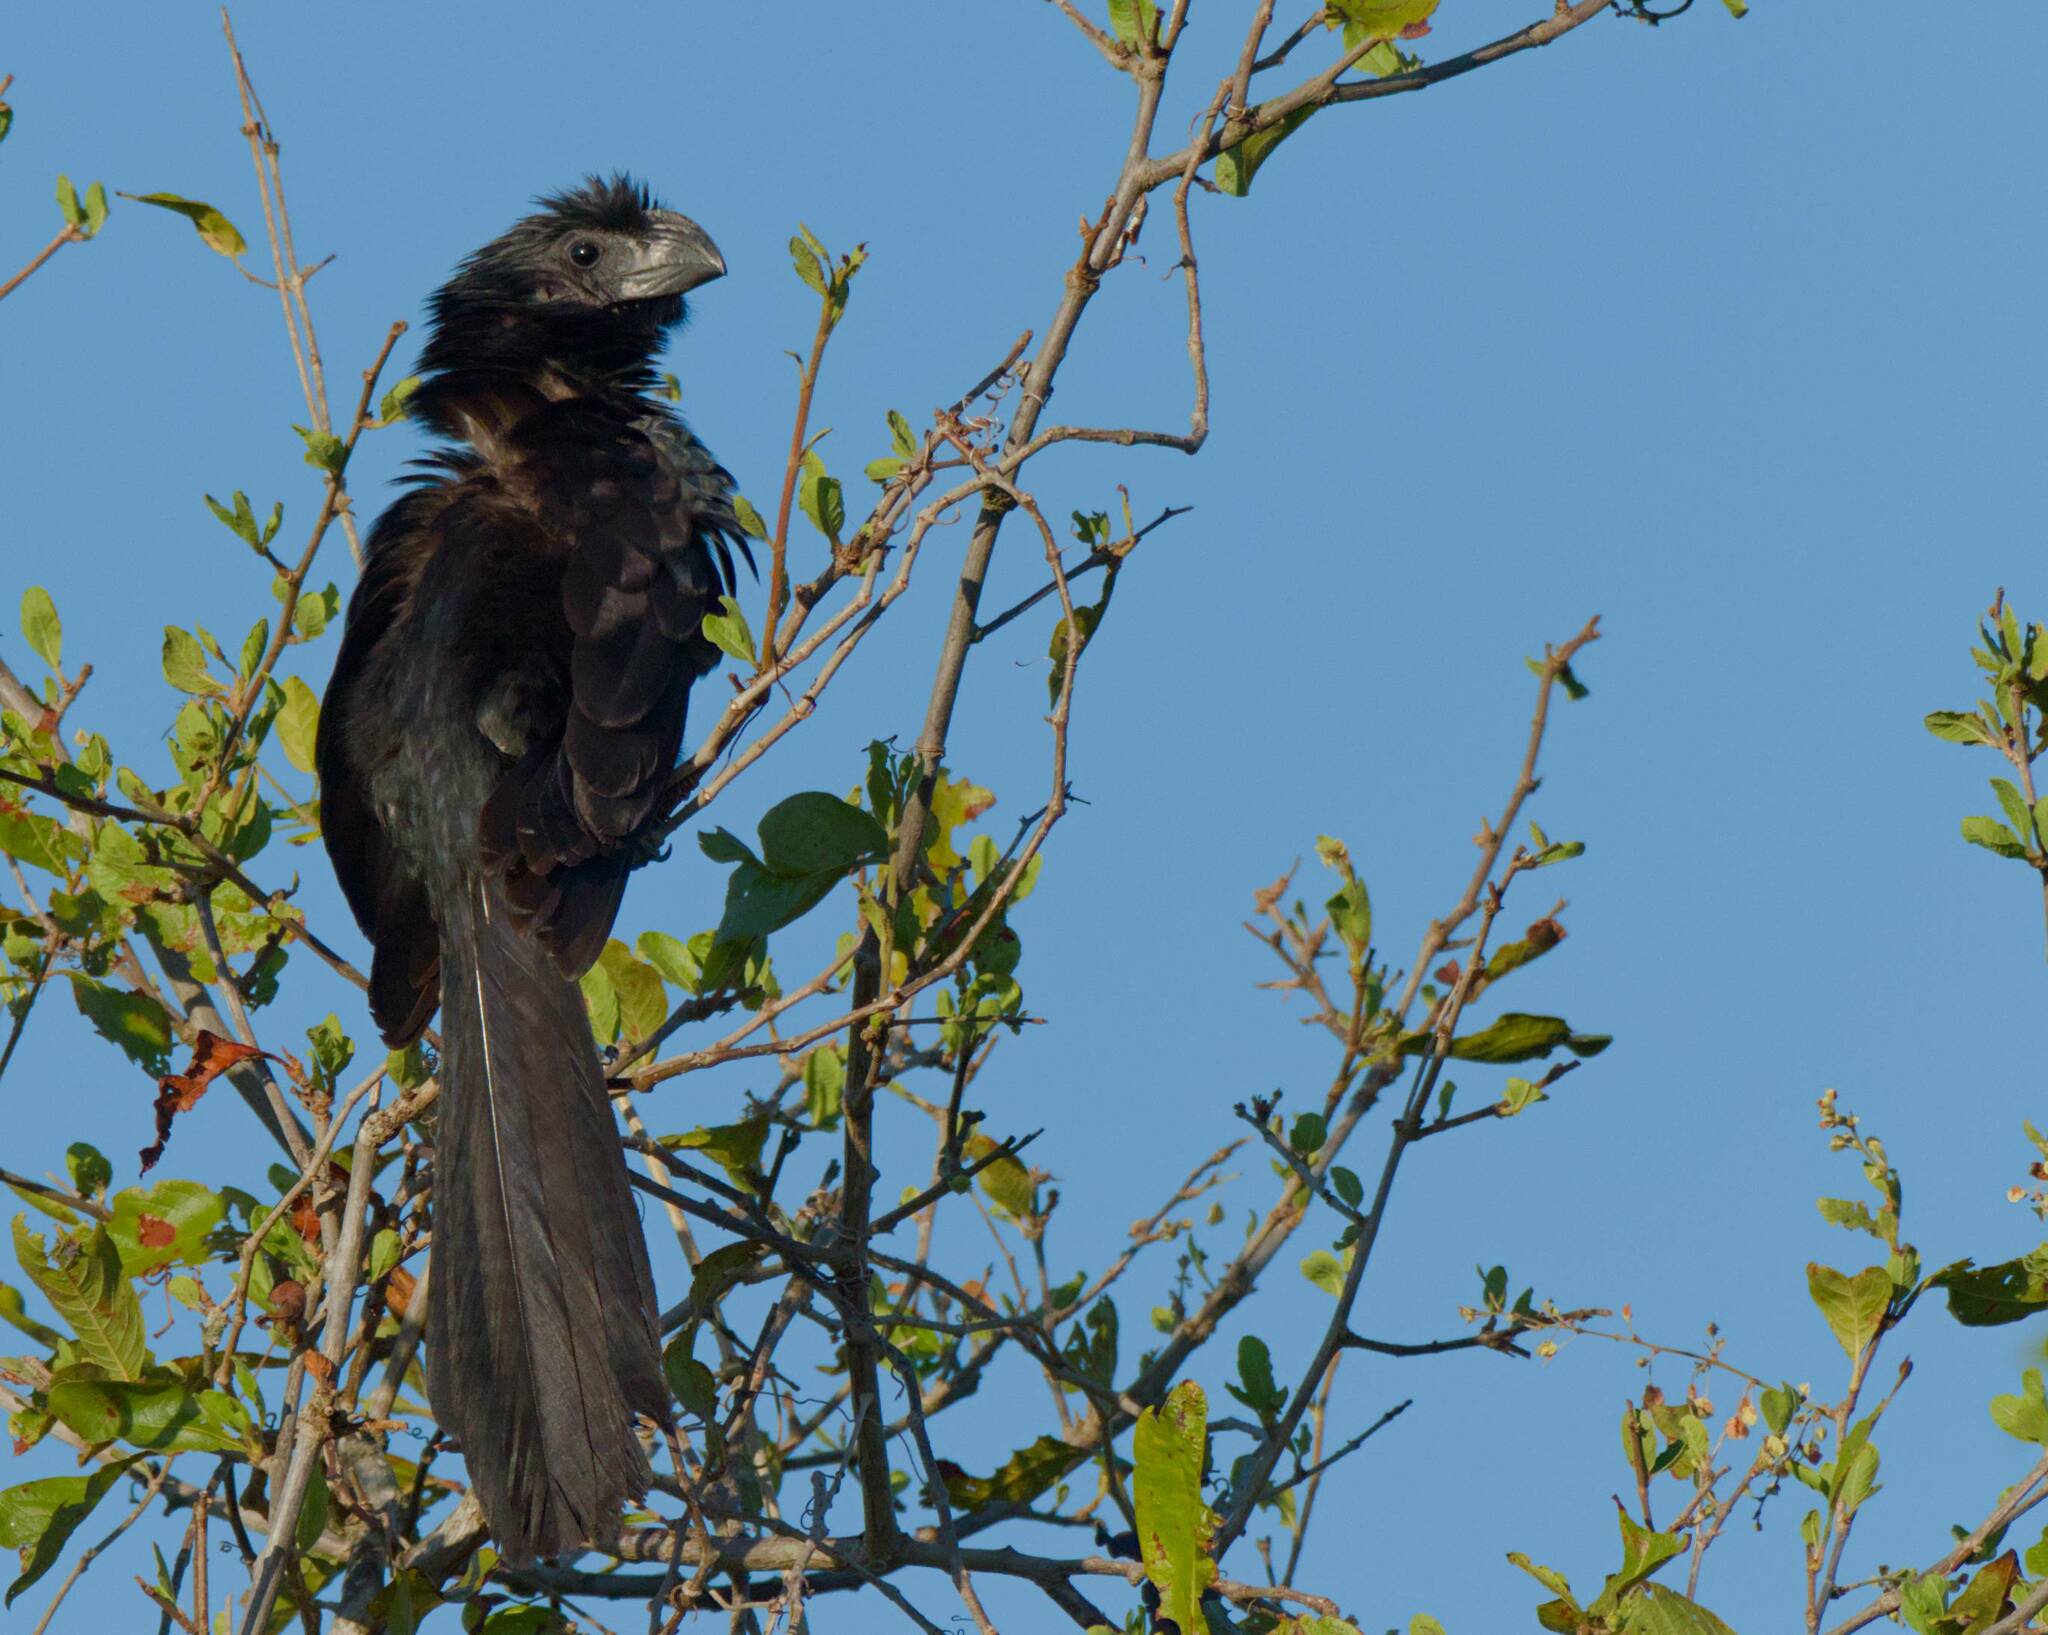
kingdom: Animalia
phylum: Chordata
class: Aves
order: Cuculiformes
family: Cuculidae
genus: Crotophaga
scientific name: Crotophaga sulcirostris
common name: Groove-billed ani
